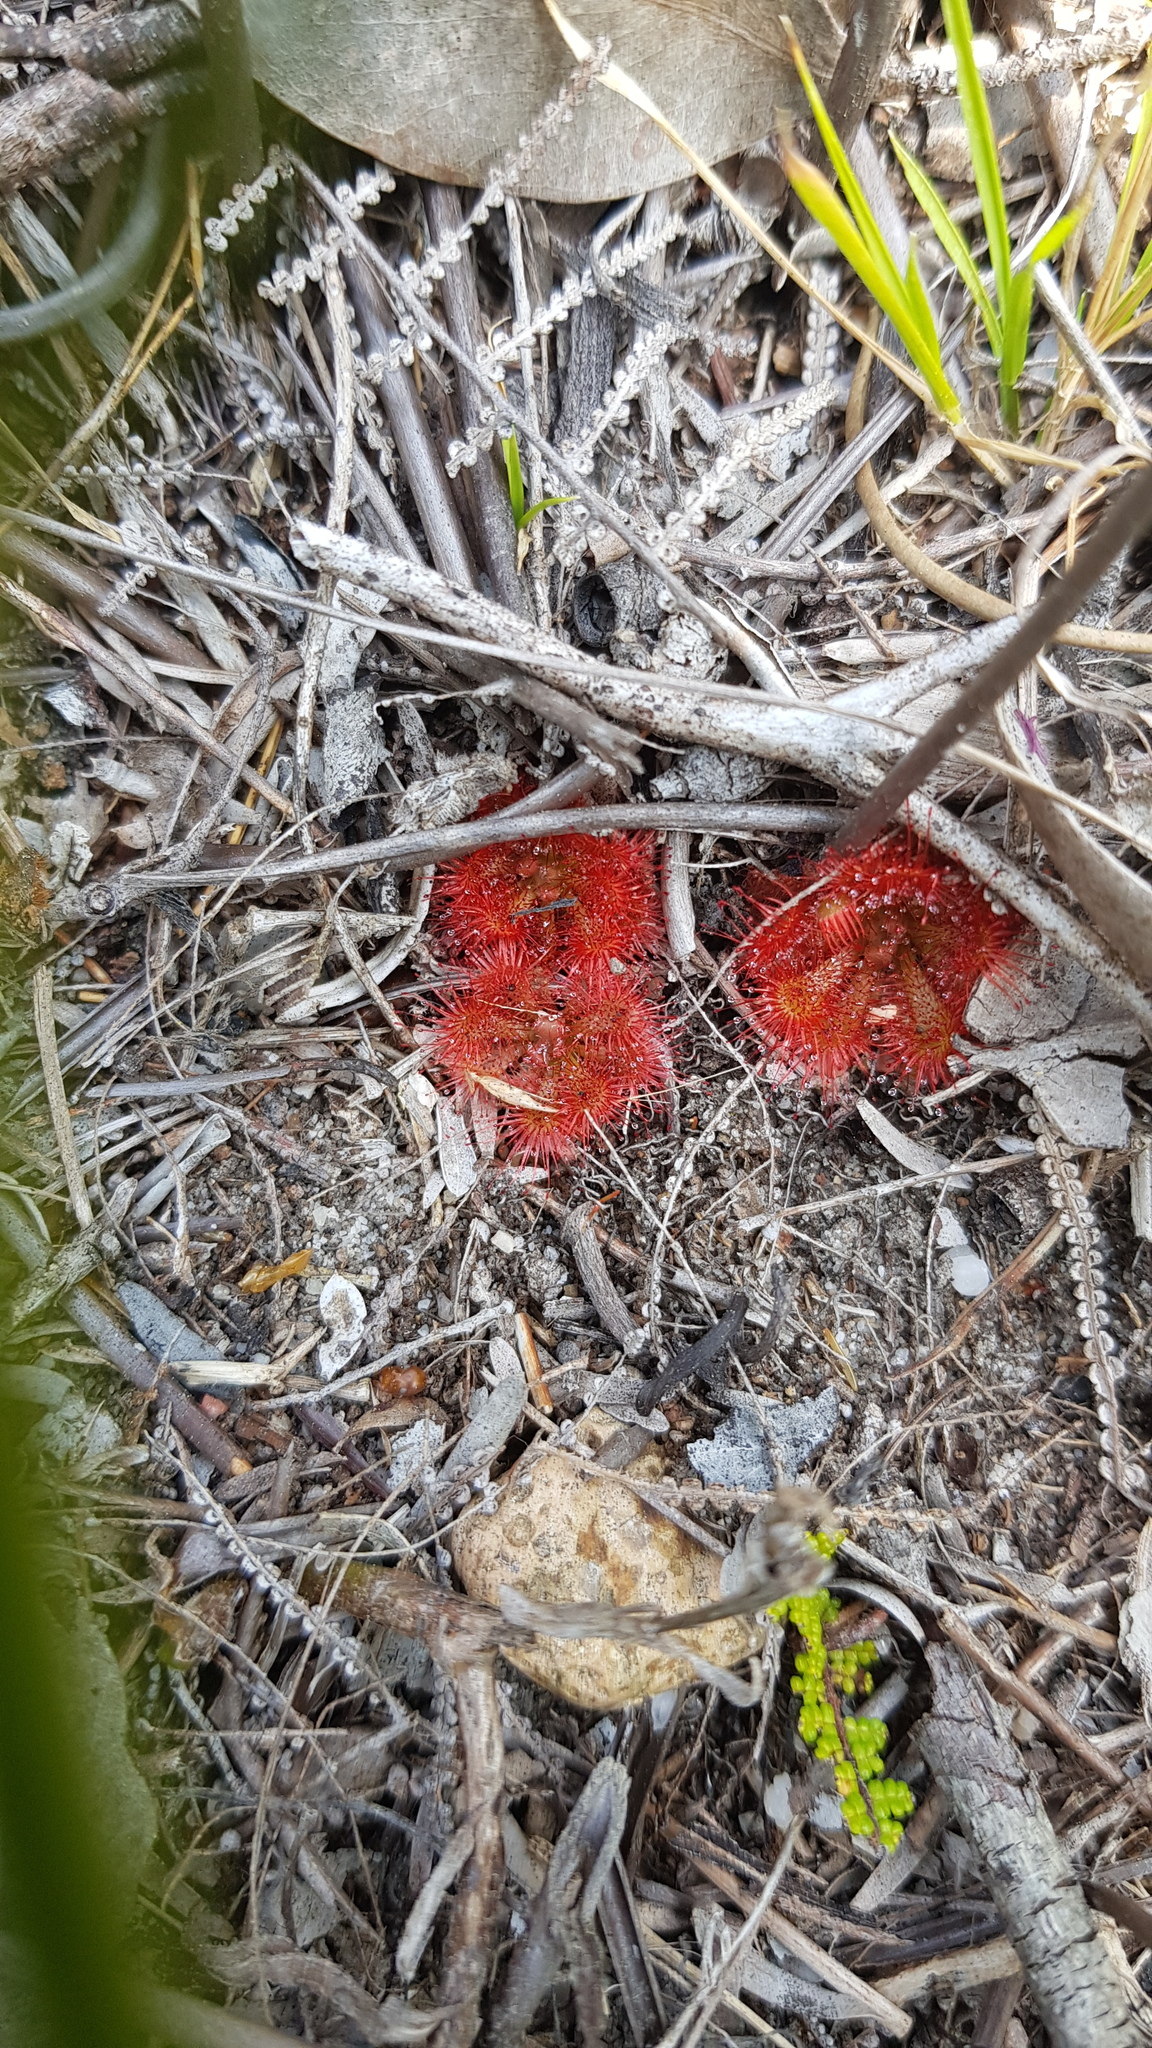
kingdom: Plantae
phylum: Tracheophyta
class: Magnoliopsida
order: Caryophyllales
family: Droseraceae
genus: Drosera
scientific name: Drosera spatulata
